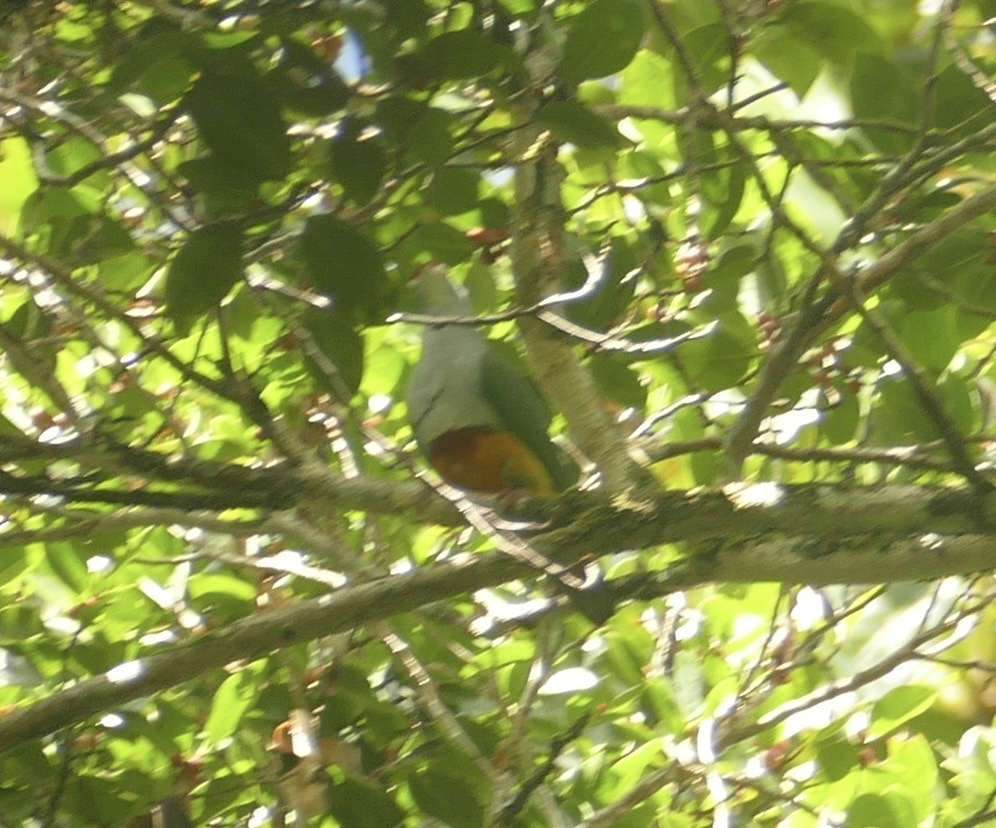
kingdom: Animalia
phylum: Chordata
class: Aves
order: Columbiformes
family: Columbidae
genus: Ptilinopus
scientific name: Ptilinopus pulchellus
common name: Beautiful fruit dove
